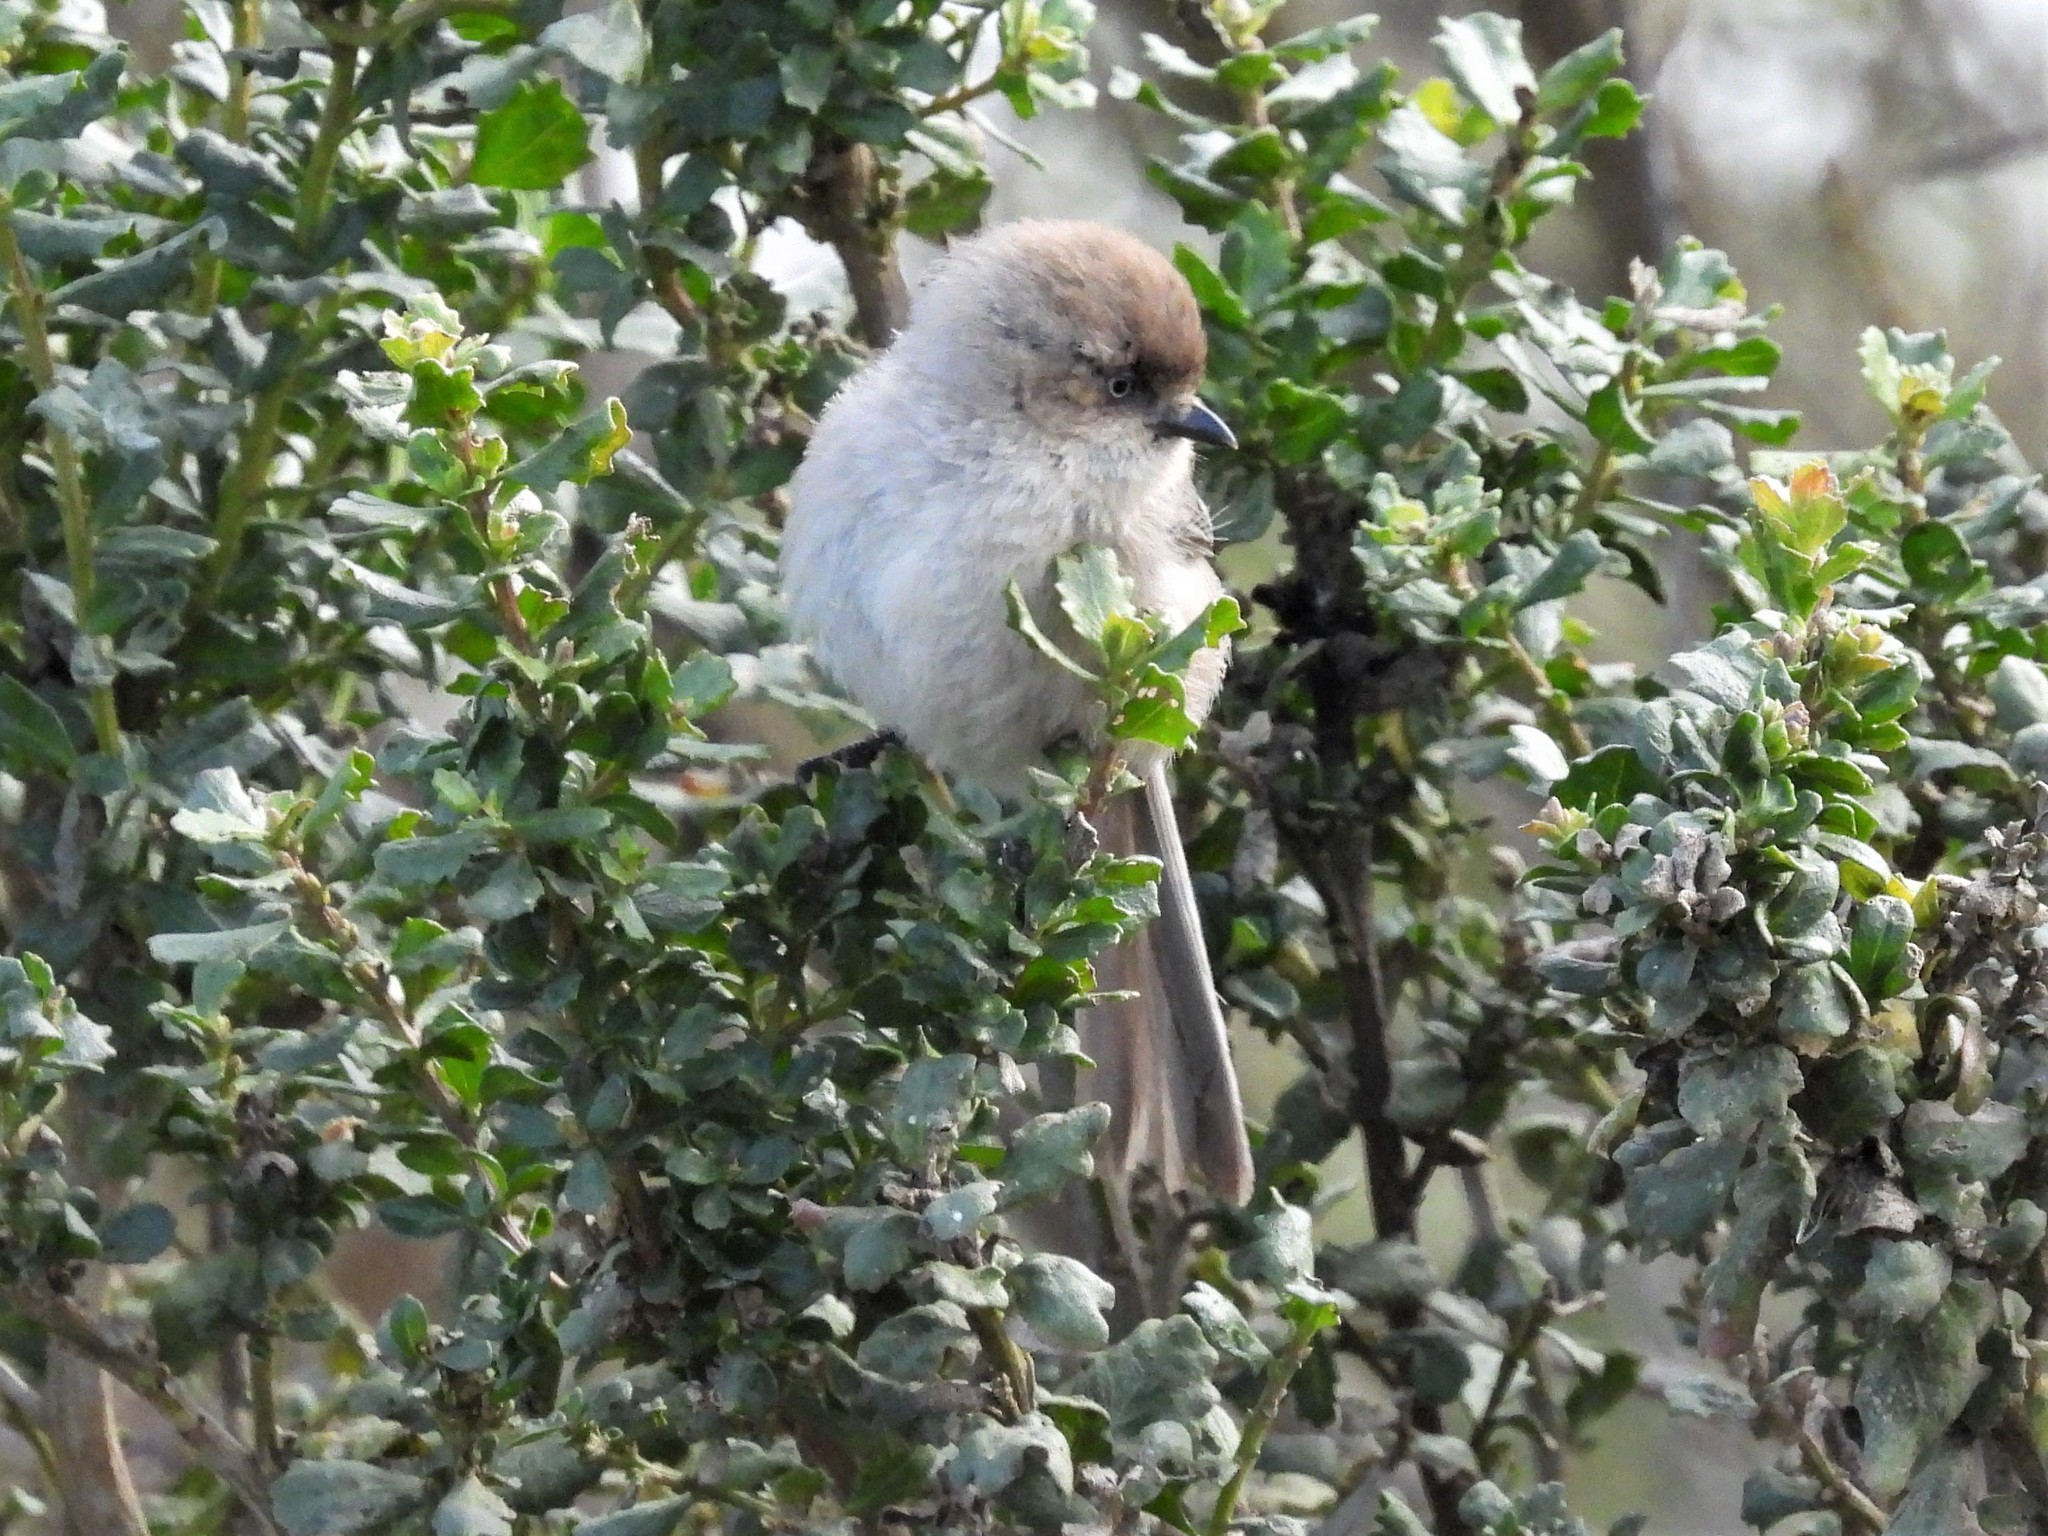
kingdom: Animalia
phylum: Chordata
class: Aves
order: Passeriformes
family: Aegithalidae
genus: Psaltriparus
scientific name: Psaltriparus minimus
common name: American bushtit
